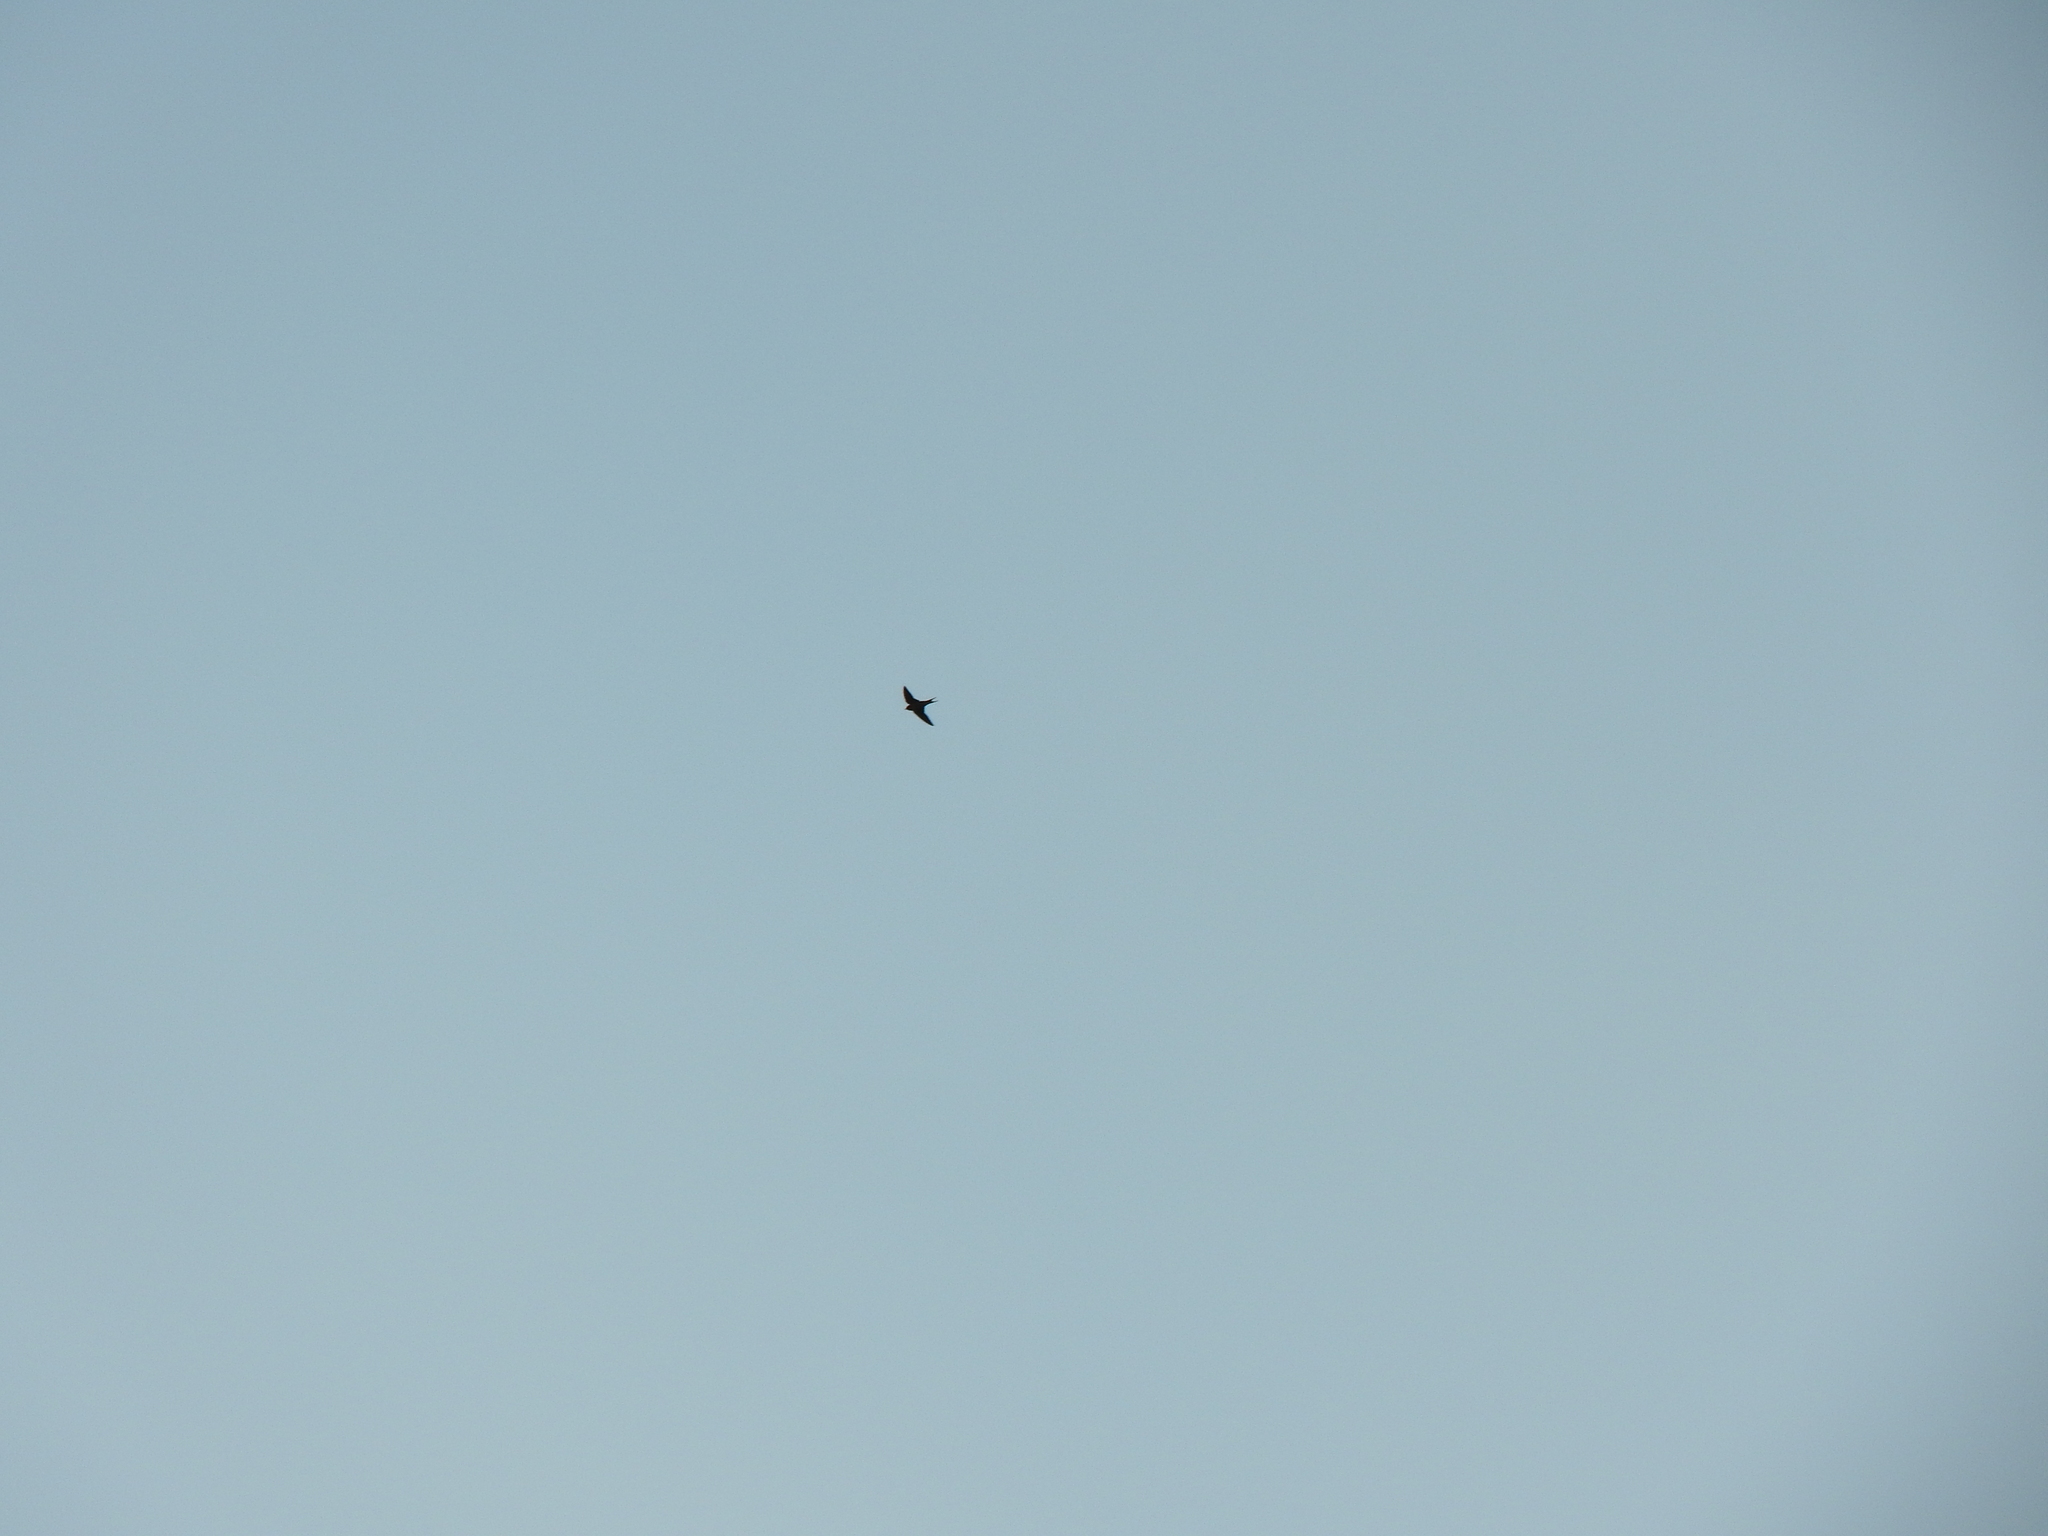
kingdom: Animalia
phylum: Chordata
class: Aves
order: Passeriformes
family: Hirundinidae
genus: Hirundo
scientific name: Hirundo rustica
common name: Barn swallow
